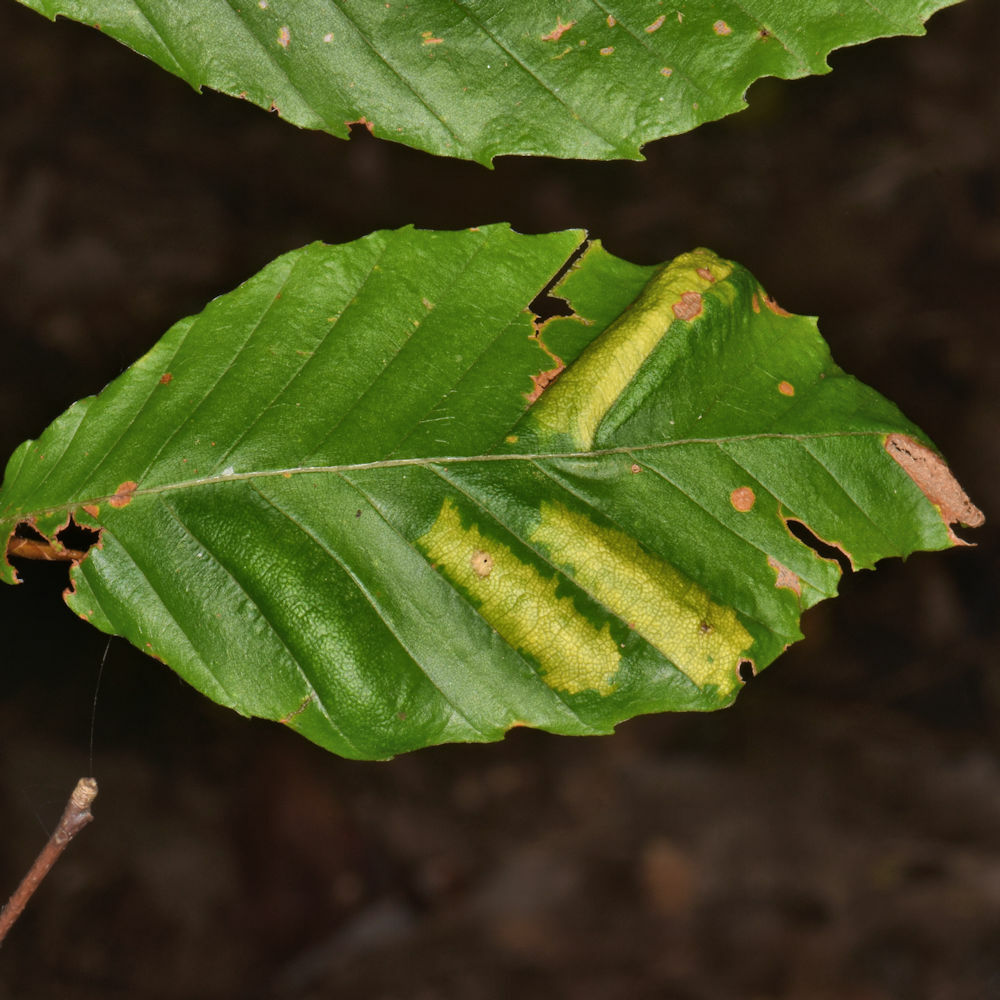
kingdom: Animalia
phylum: Nematoda
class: Chromadorea
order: Rhabditida
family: Anguinidae
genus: Litylenchus
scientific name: Litylenchus crenatae
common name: Beech leaf disease
